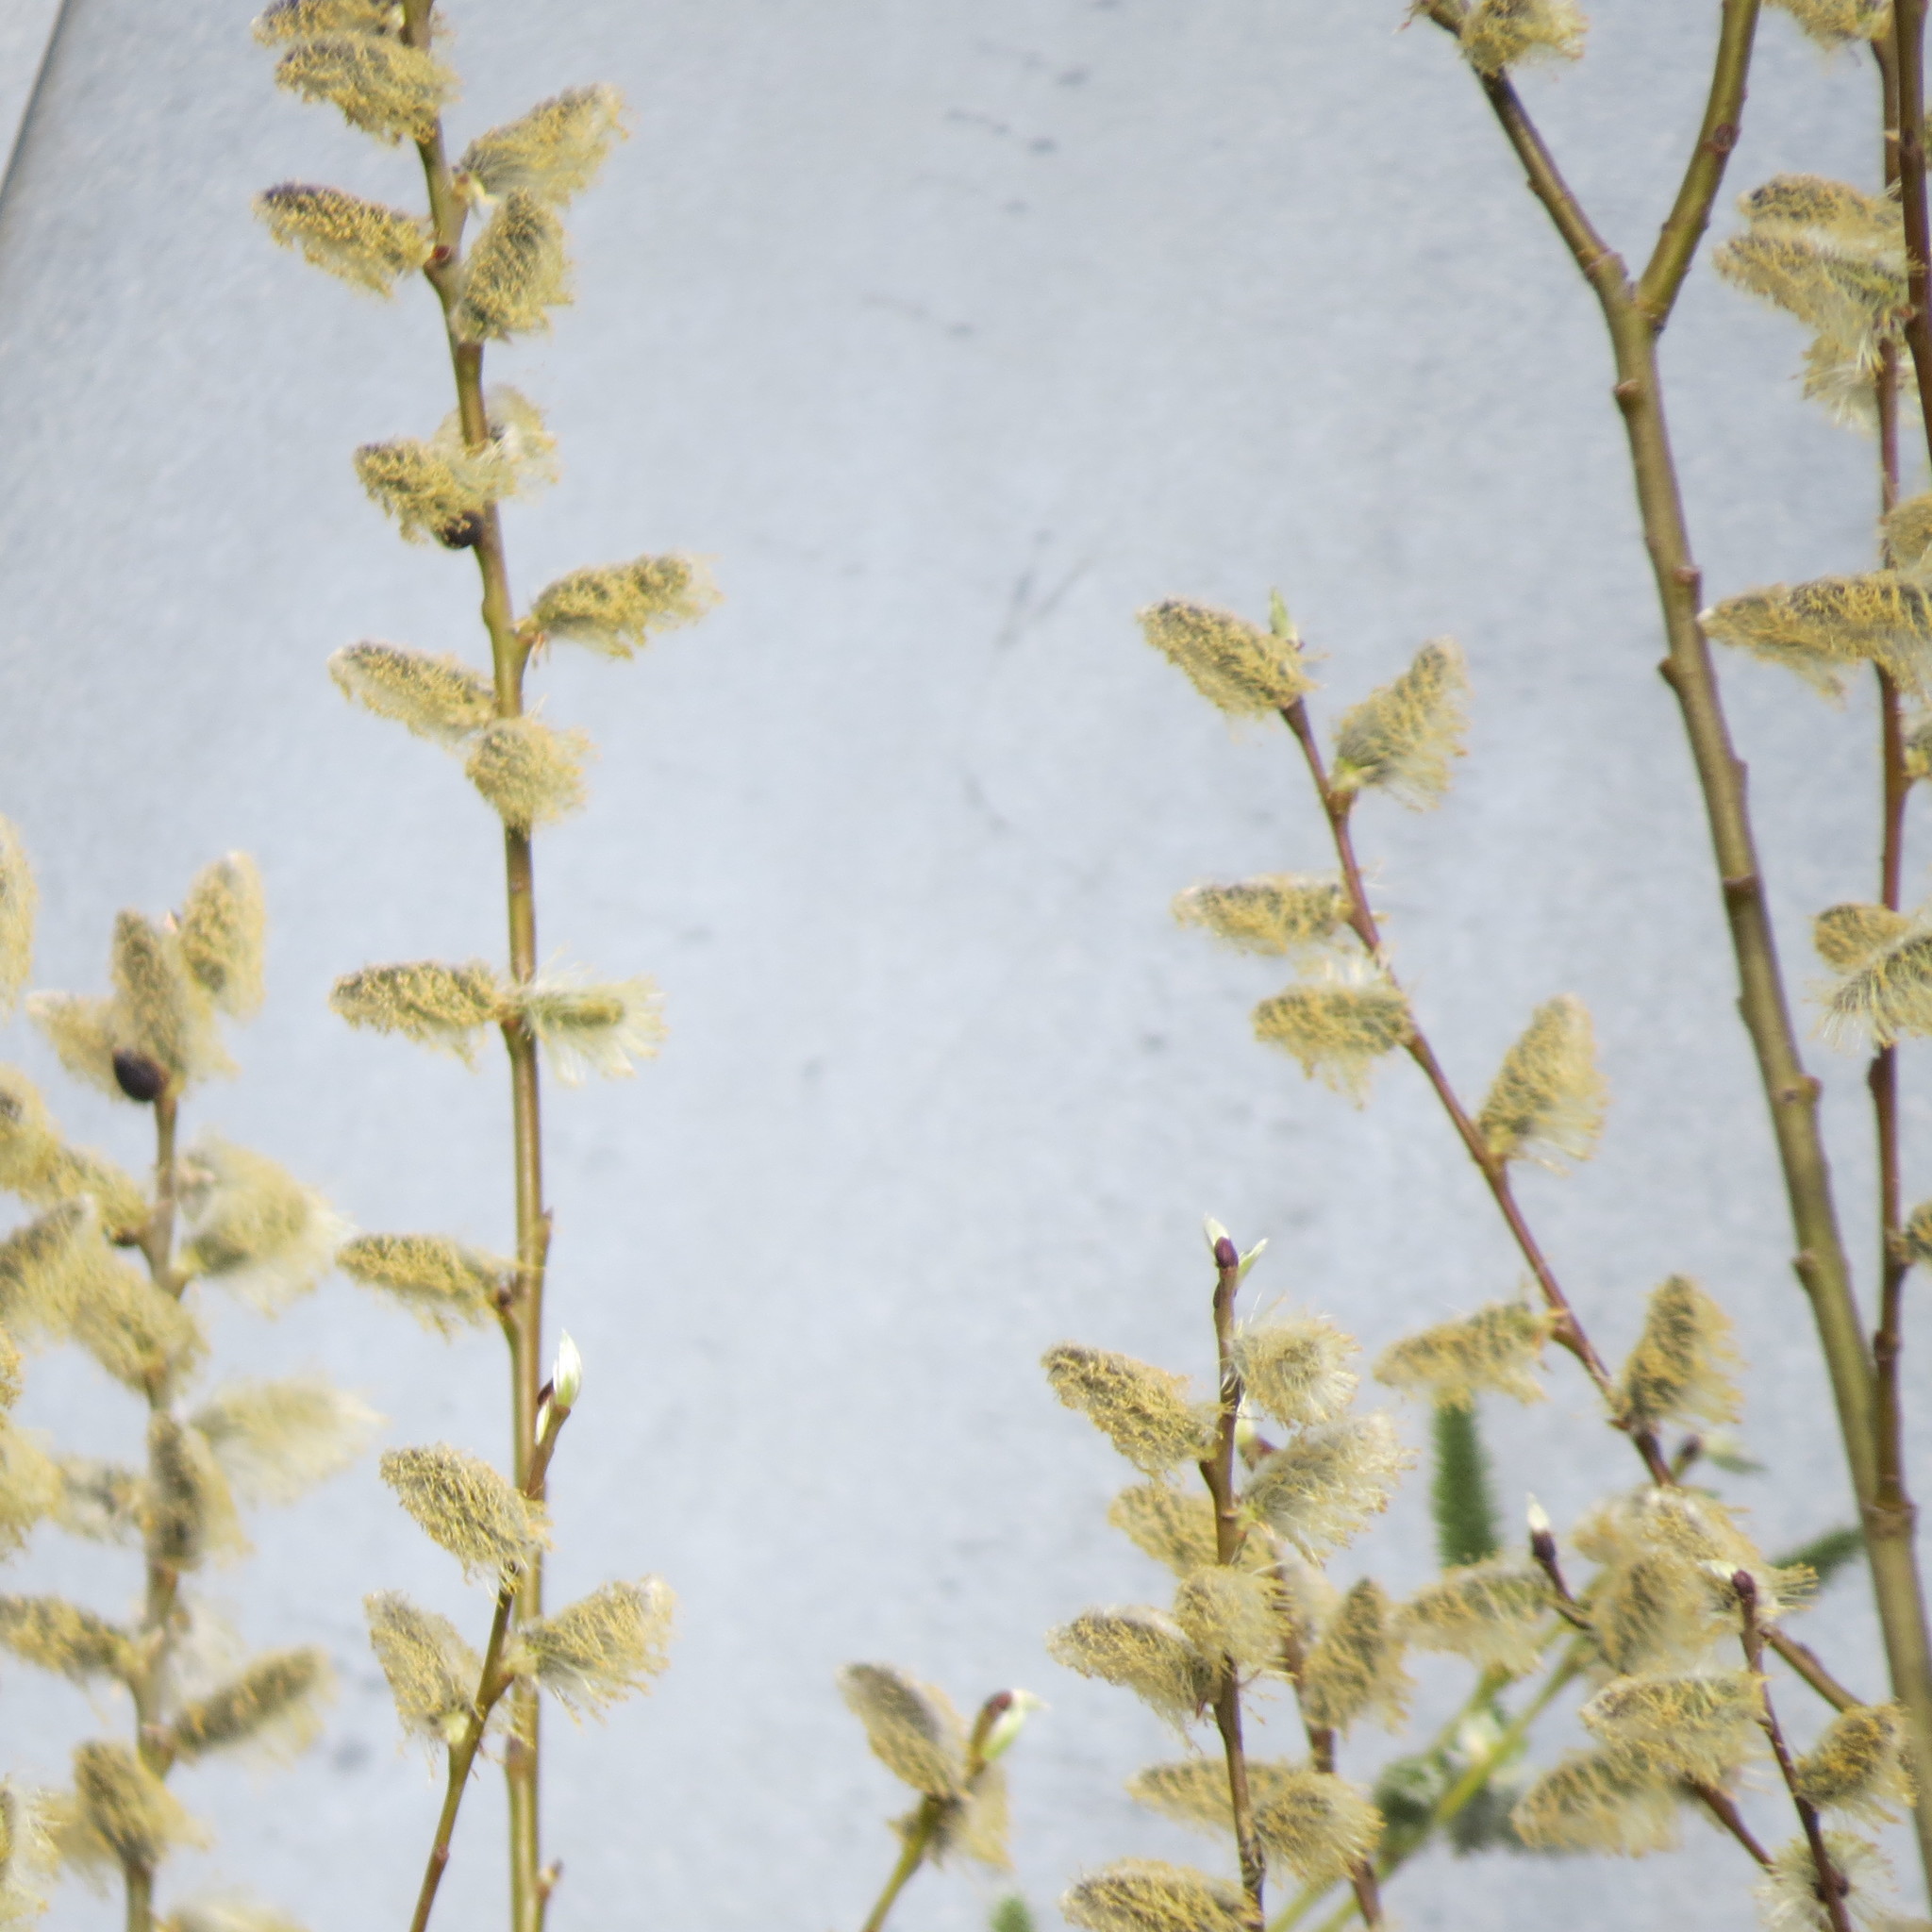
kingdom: Plantae
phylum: Tracheophyta
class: Magnoliopsida
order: Malpighiales
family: Salicaceae
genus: Salix
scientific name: Salix caprea
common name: Goat willow
